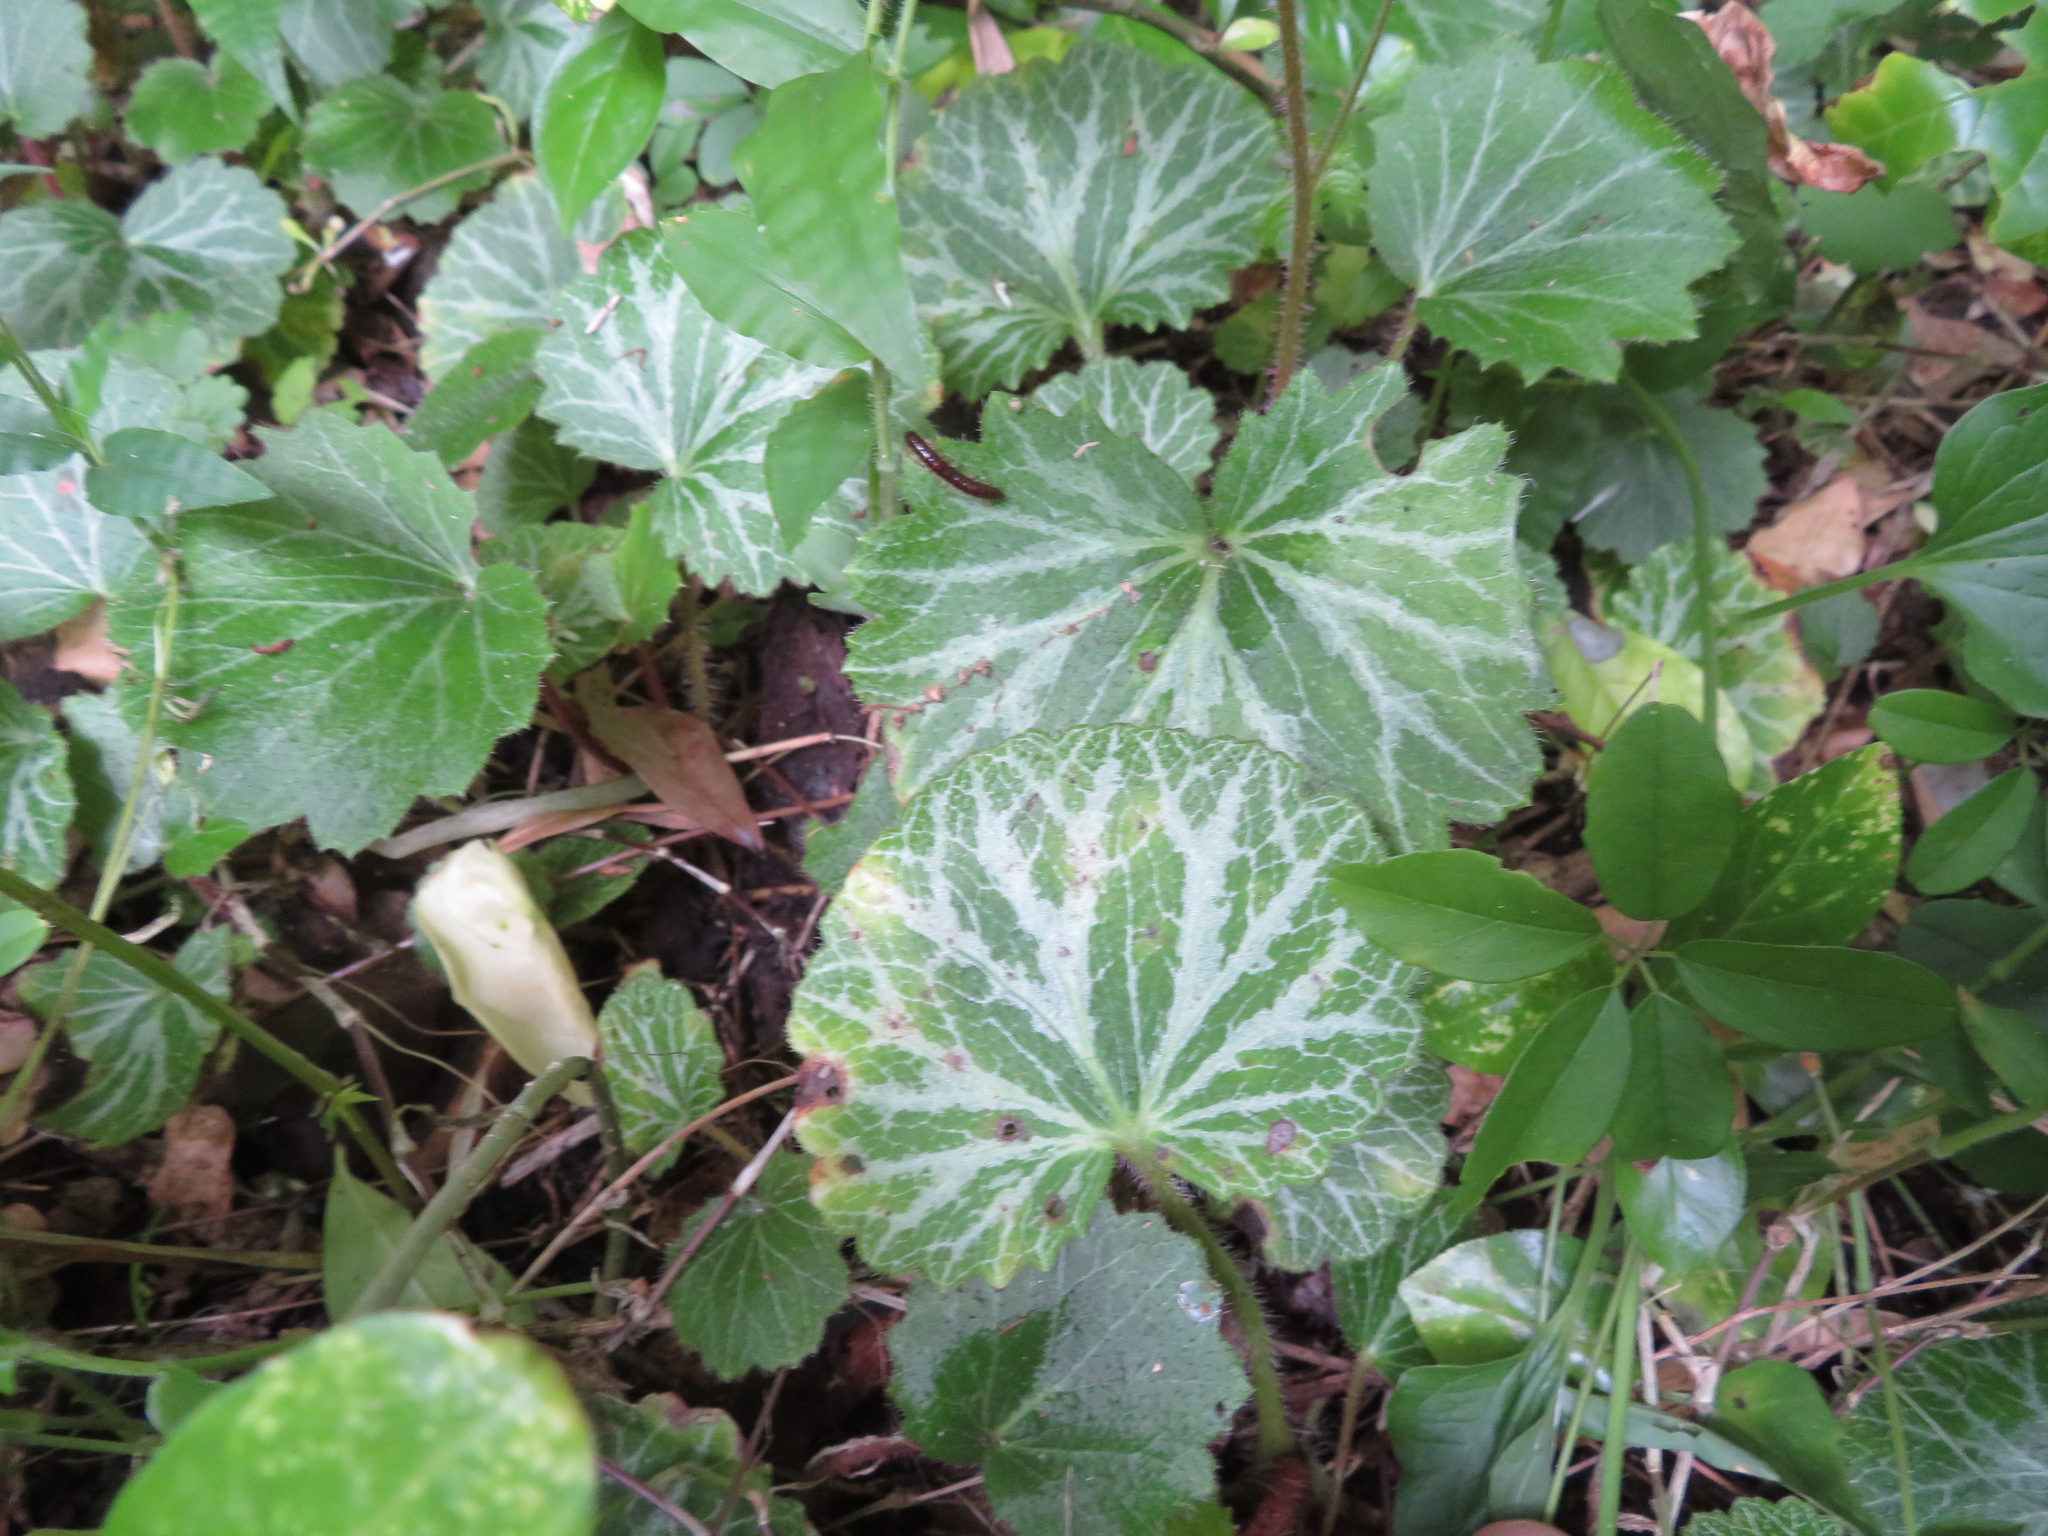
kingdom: Plantae
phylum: Tracheophyta
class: Magnoliopsida
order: Saxifragales
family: Saxifragaceae
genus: Saxifraga
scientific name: Saxifraga stolonifera
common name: Creeping saxifrage
